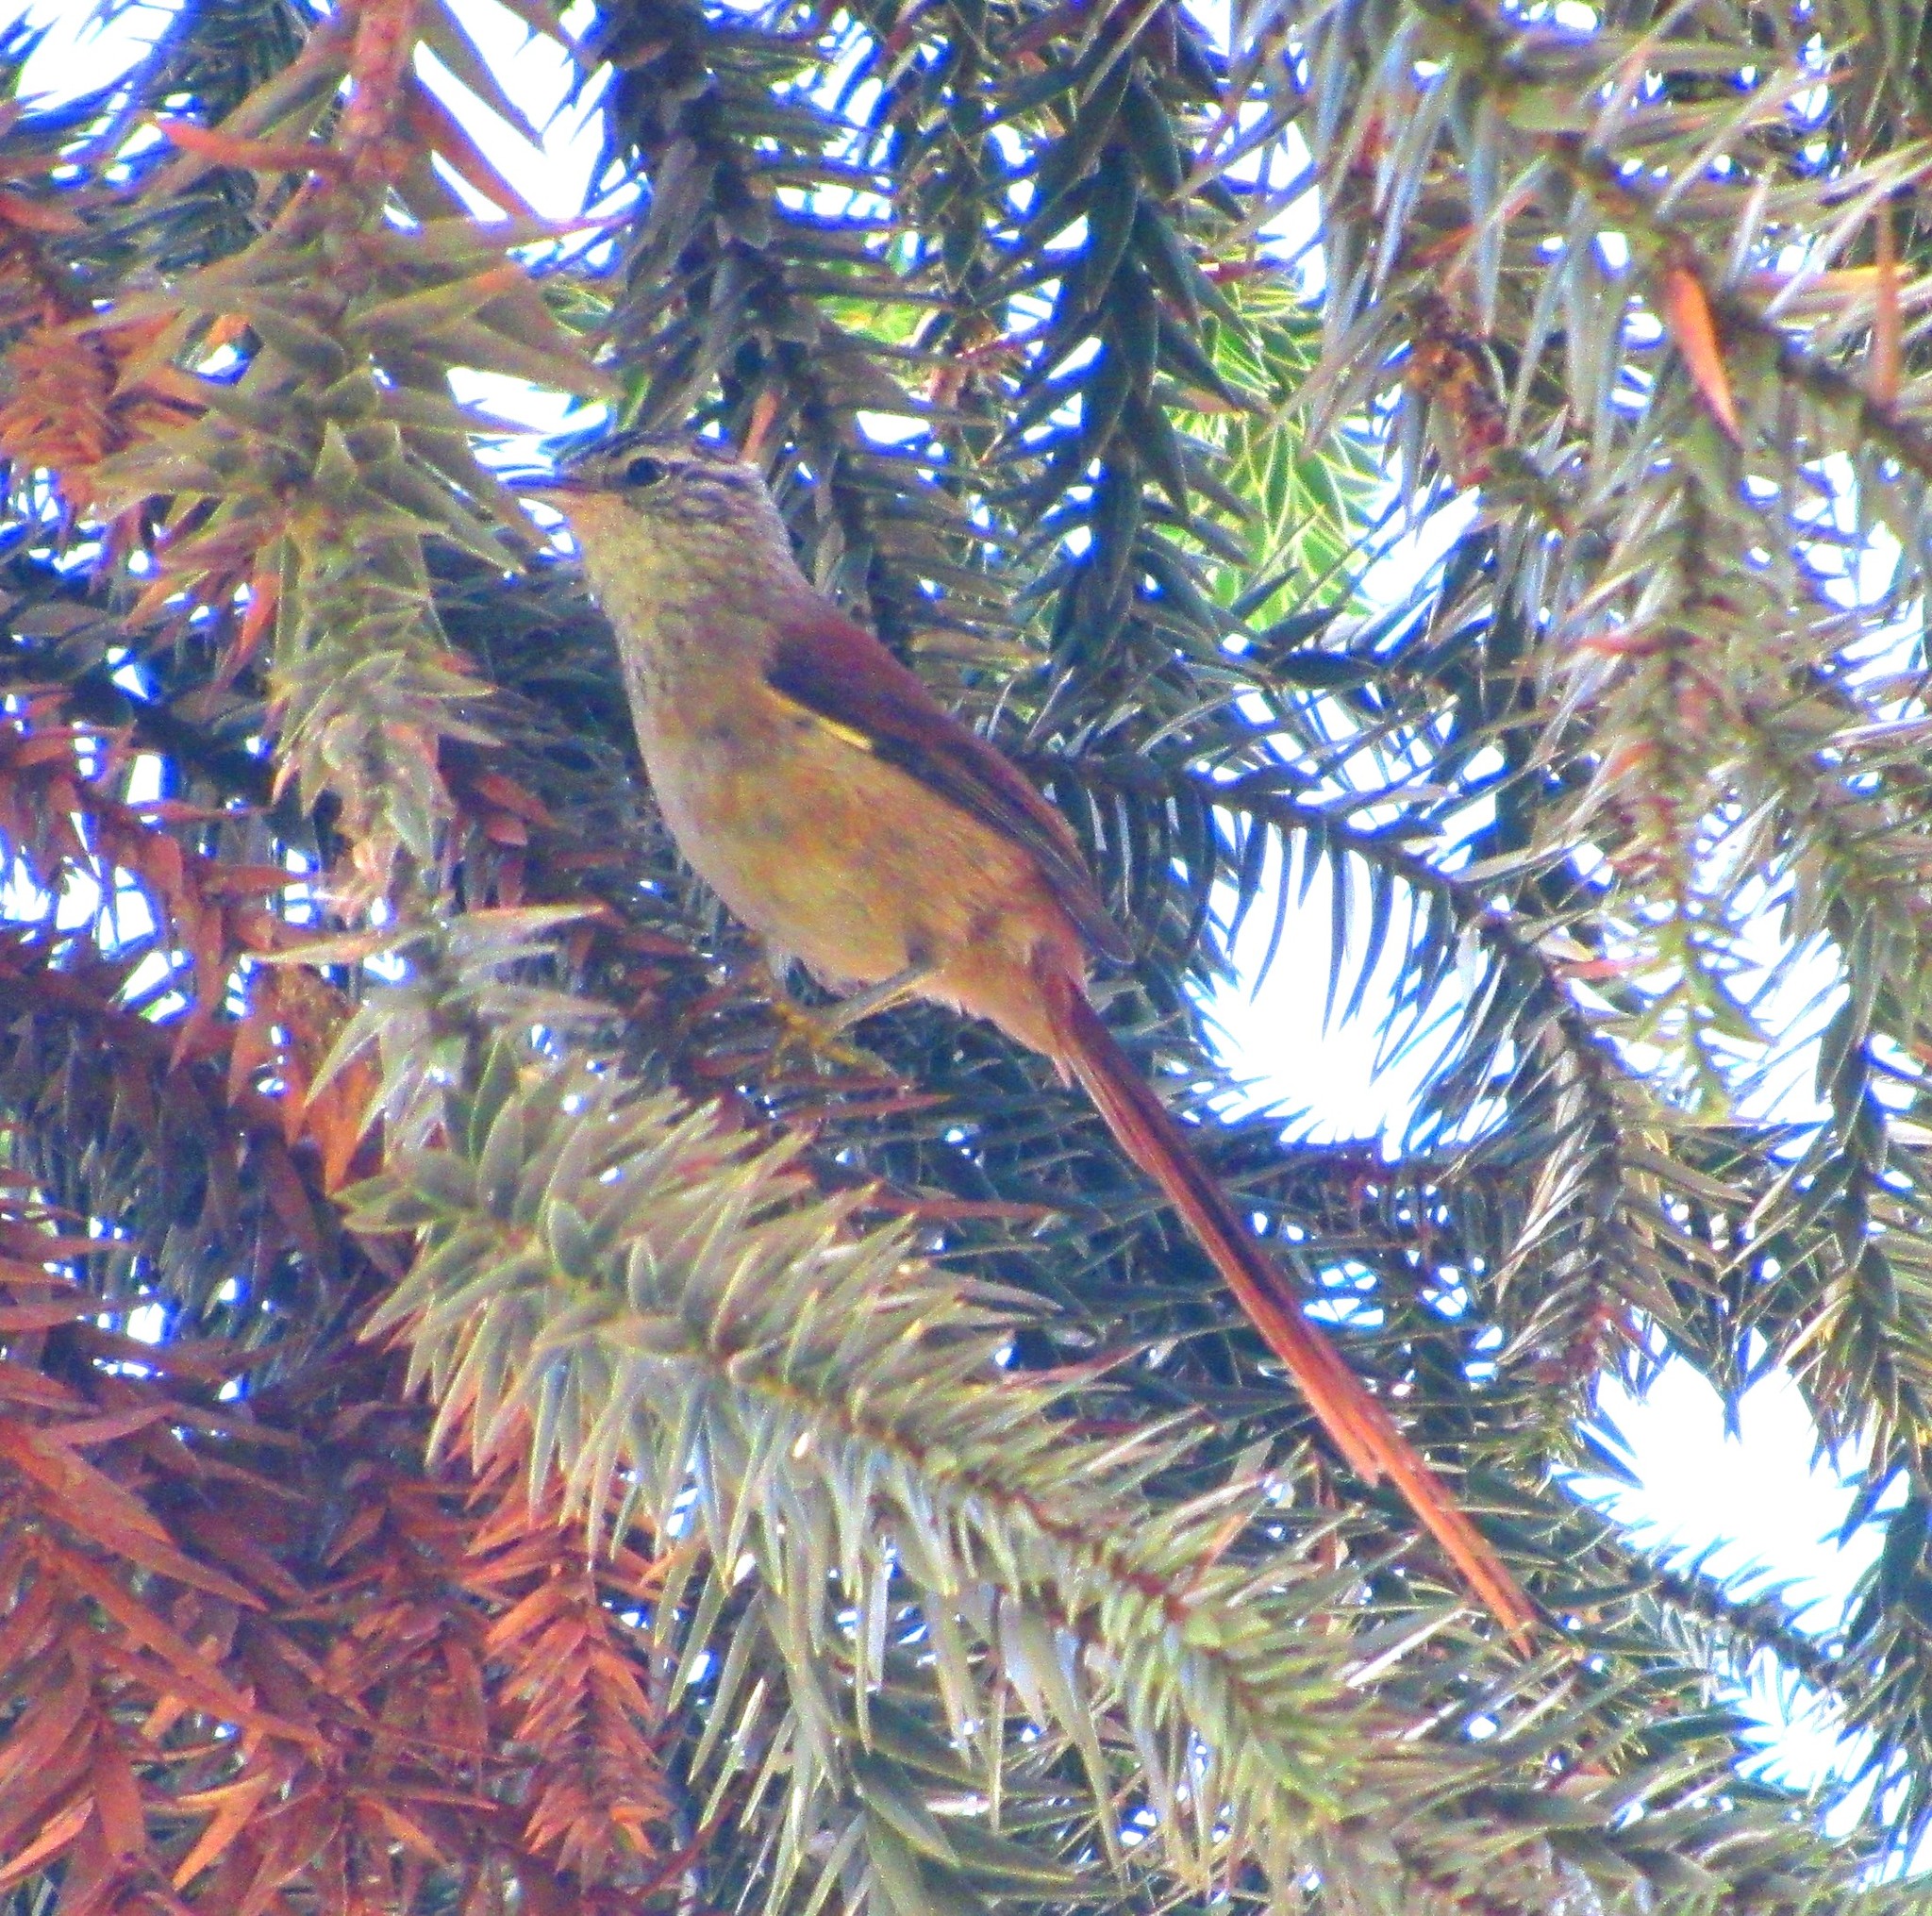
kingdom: Animalia
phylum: Chordata
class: Aves
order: Passeriformes
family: Furnariidae
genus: Leptasthenura
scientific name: Leptasthenura setaria
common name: Araucaria tit-spinetail
